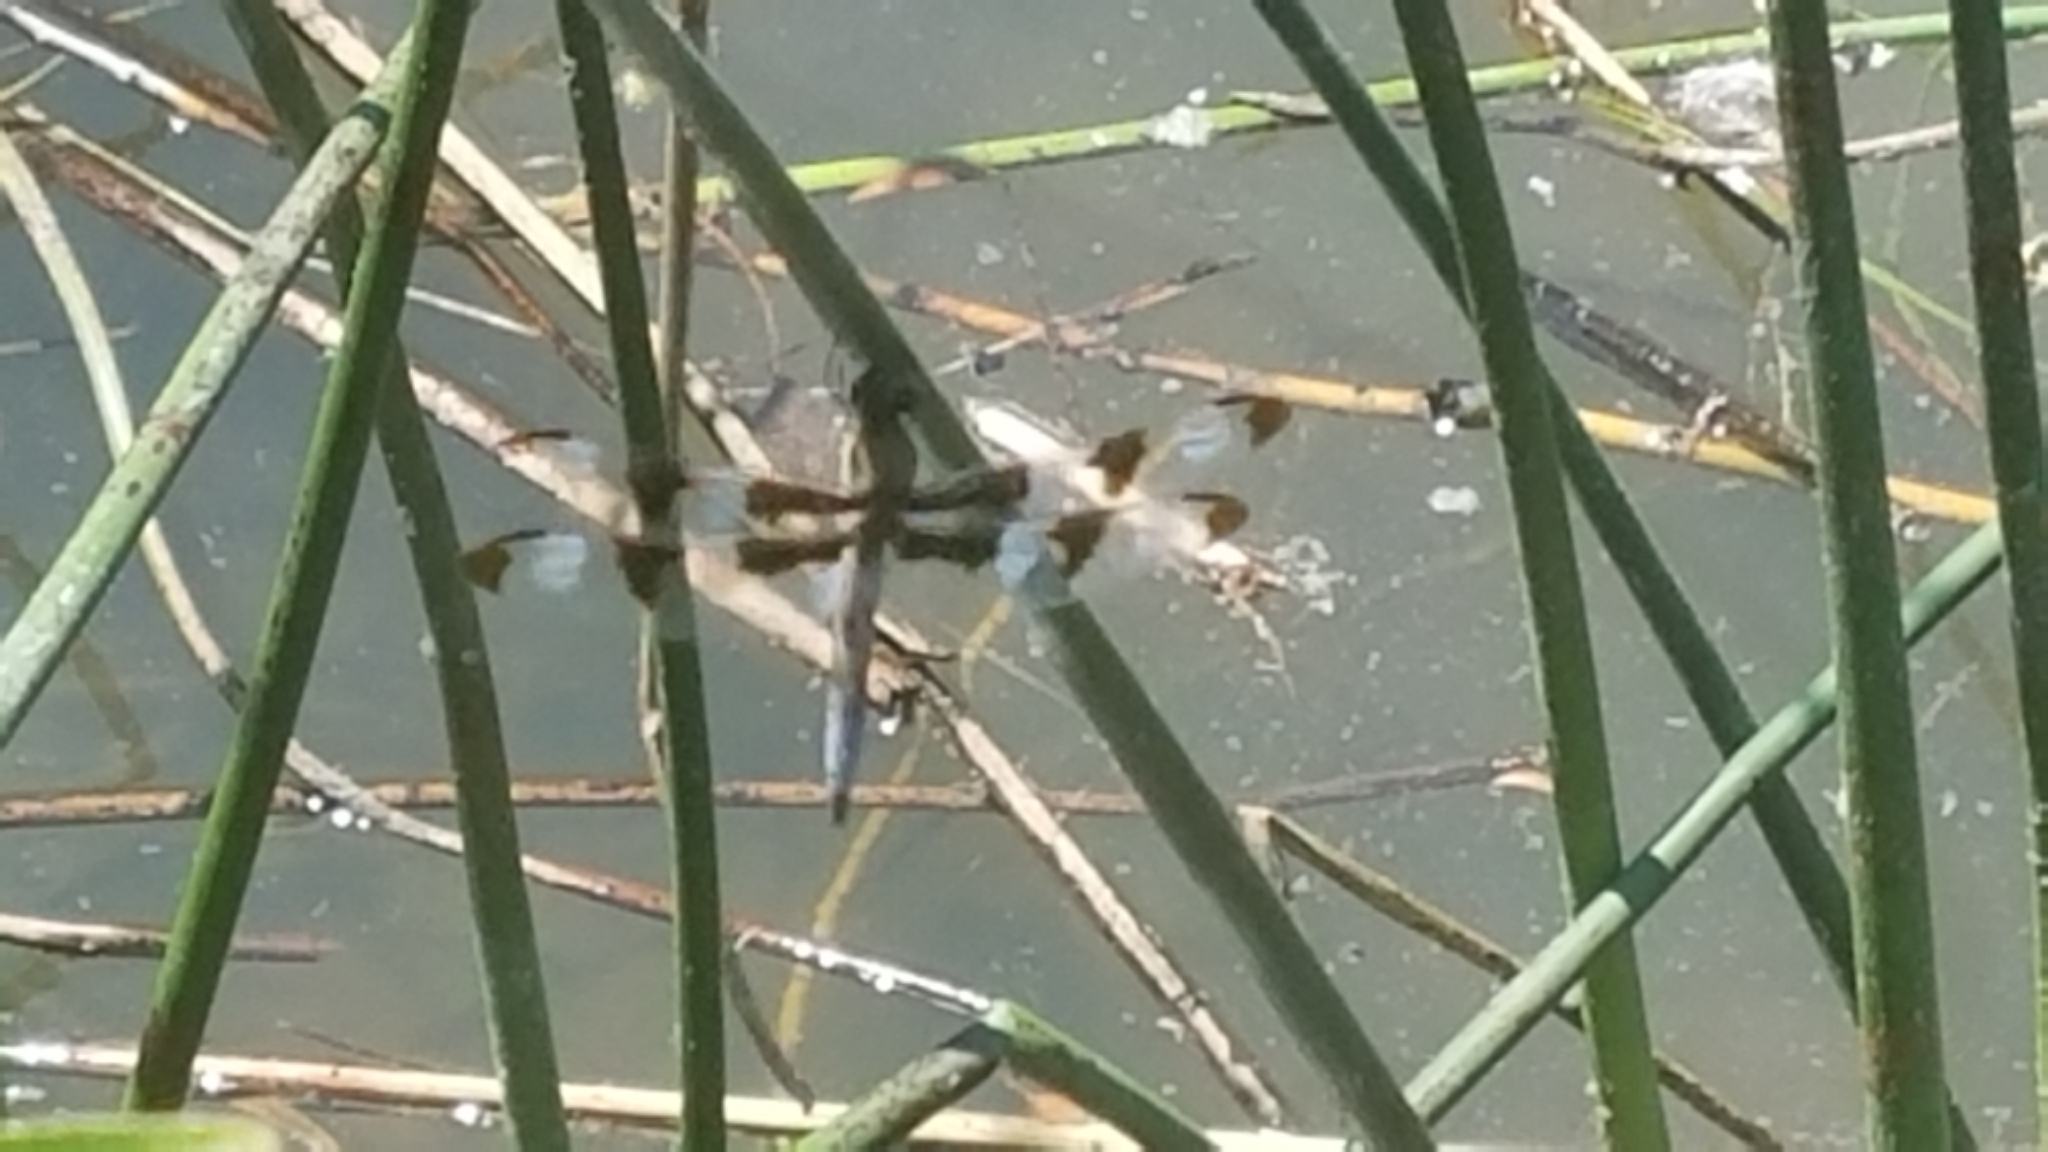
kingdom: Animalia
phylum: Arthropoda
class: Insecta
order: Odonata
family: Libellulidae
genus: Libellula
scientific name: Libellula pulchella
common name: Twelve-spotted skimmer
